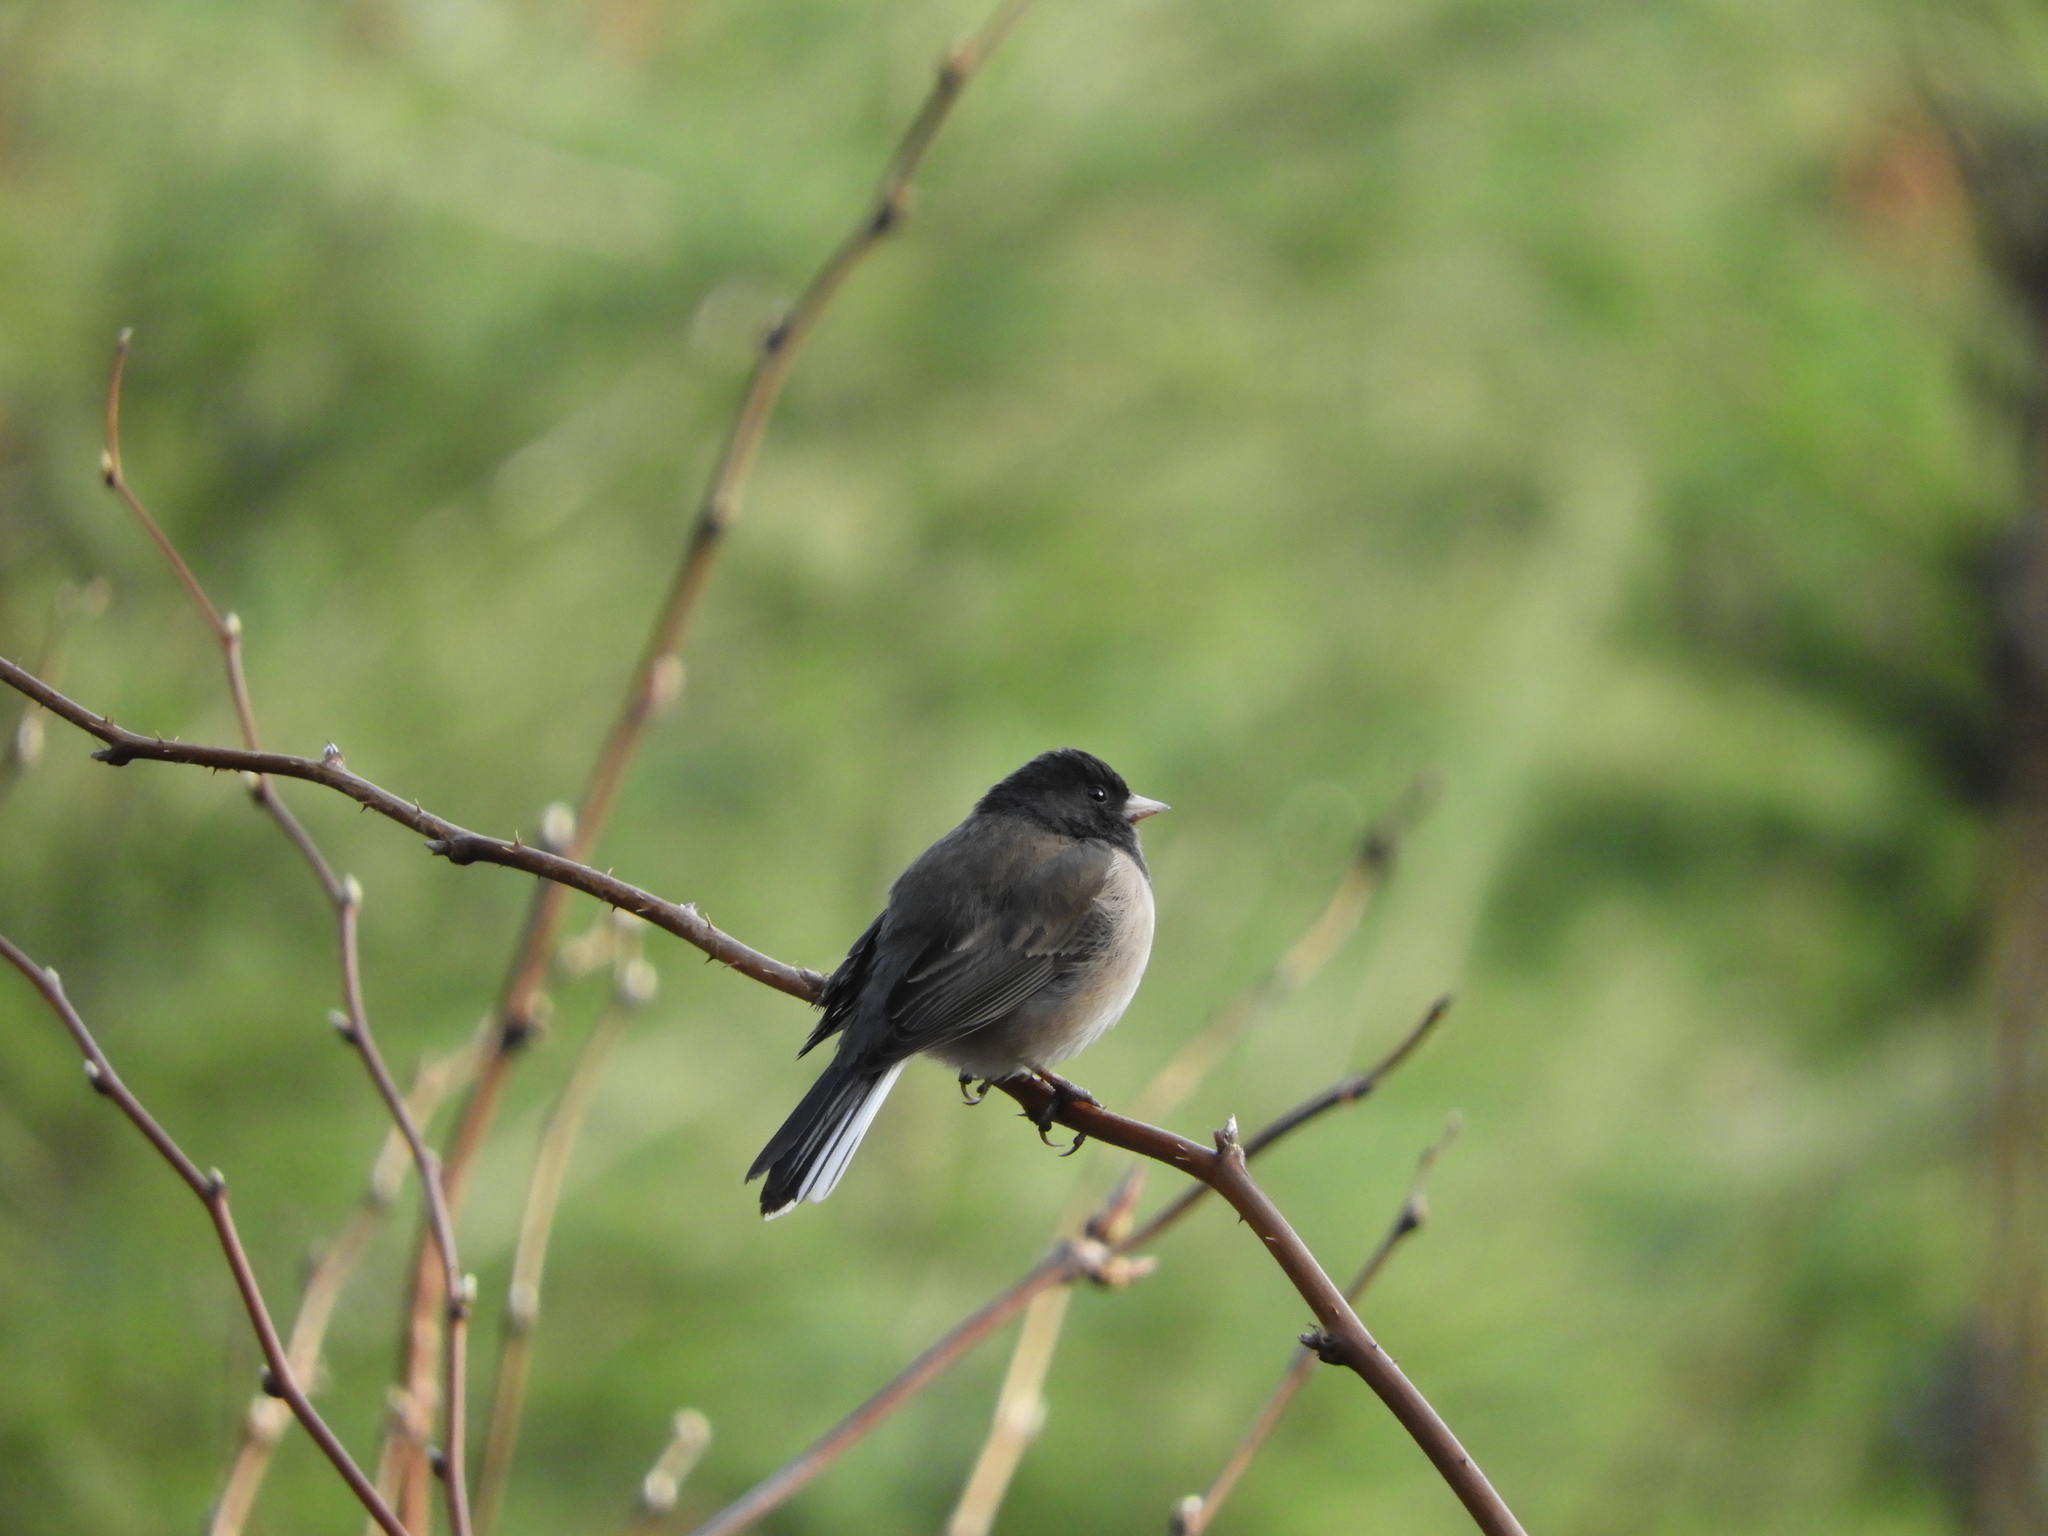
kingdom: Animalia
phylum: Chordata
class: Aves
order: Passeriformes
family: Passerellidae
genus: Junco
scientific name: Junco hyemalis
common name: Dark-eyed junco
